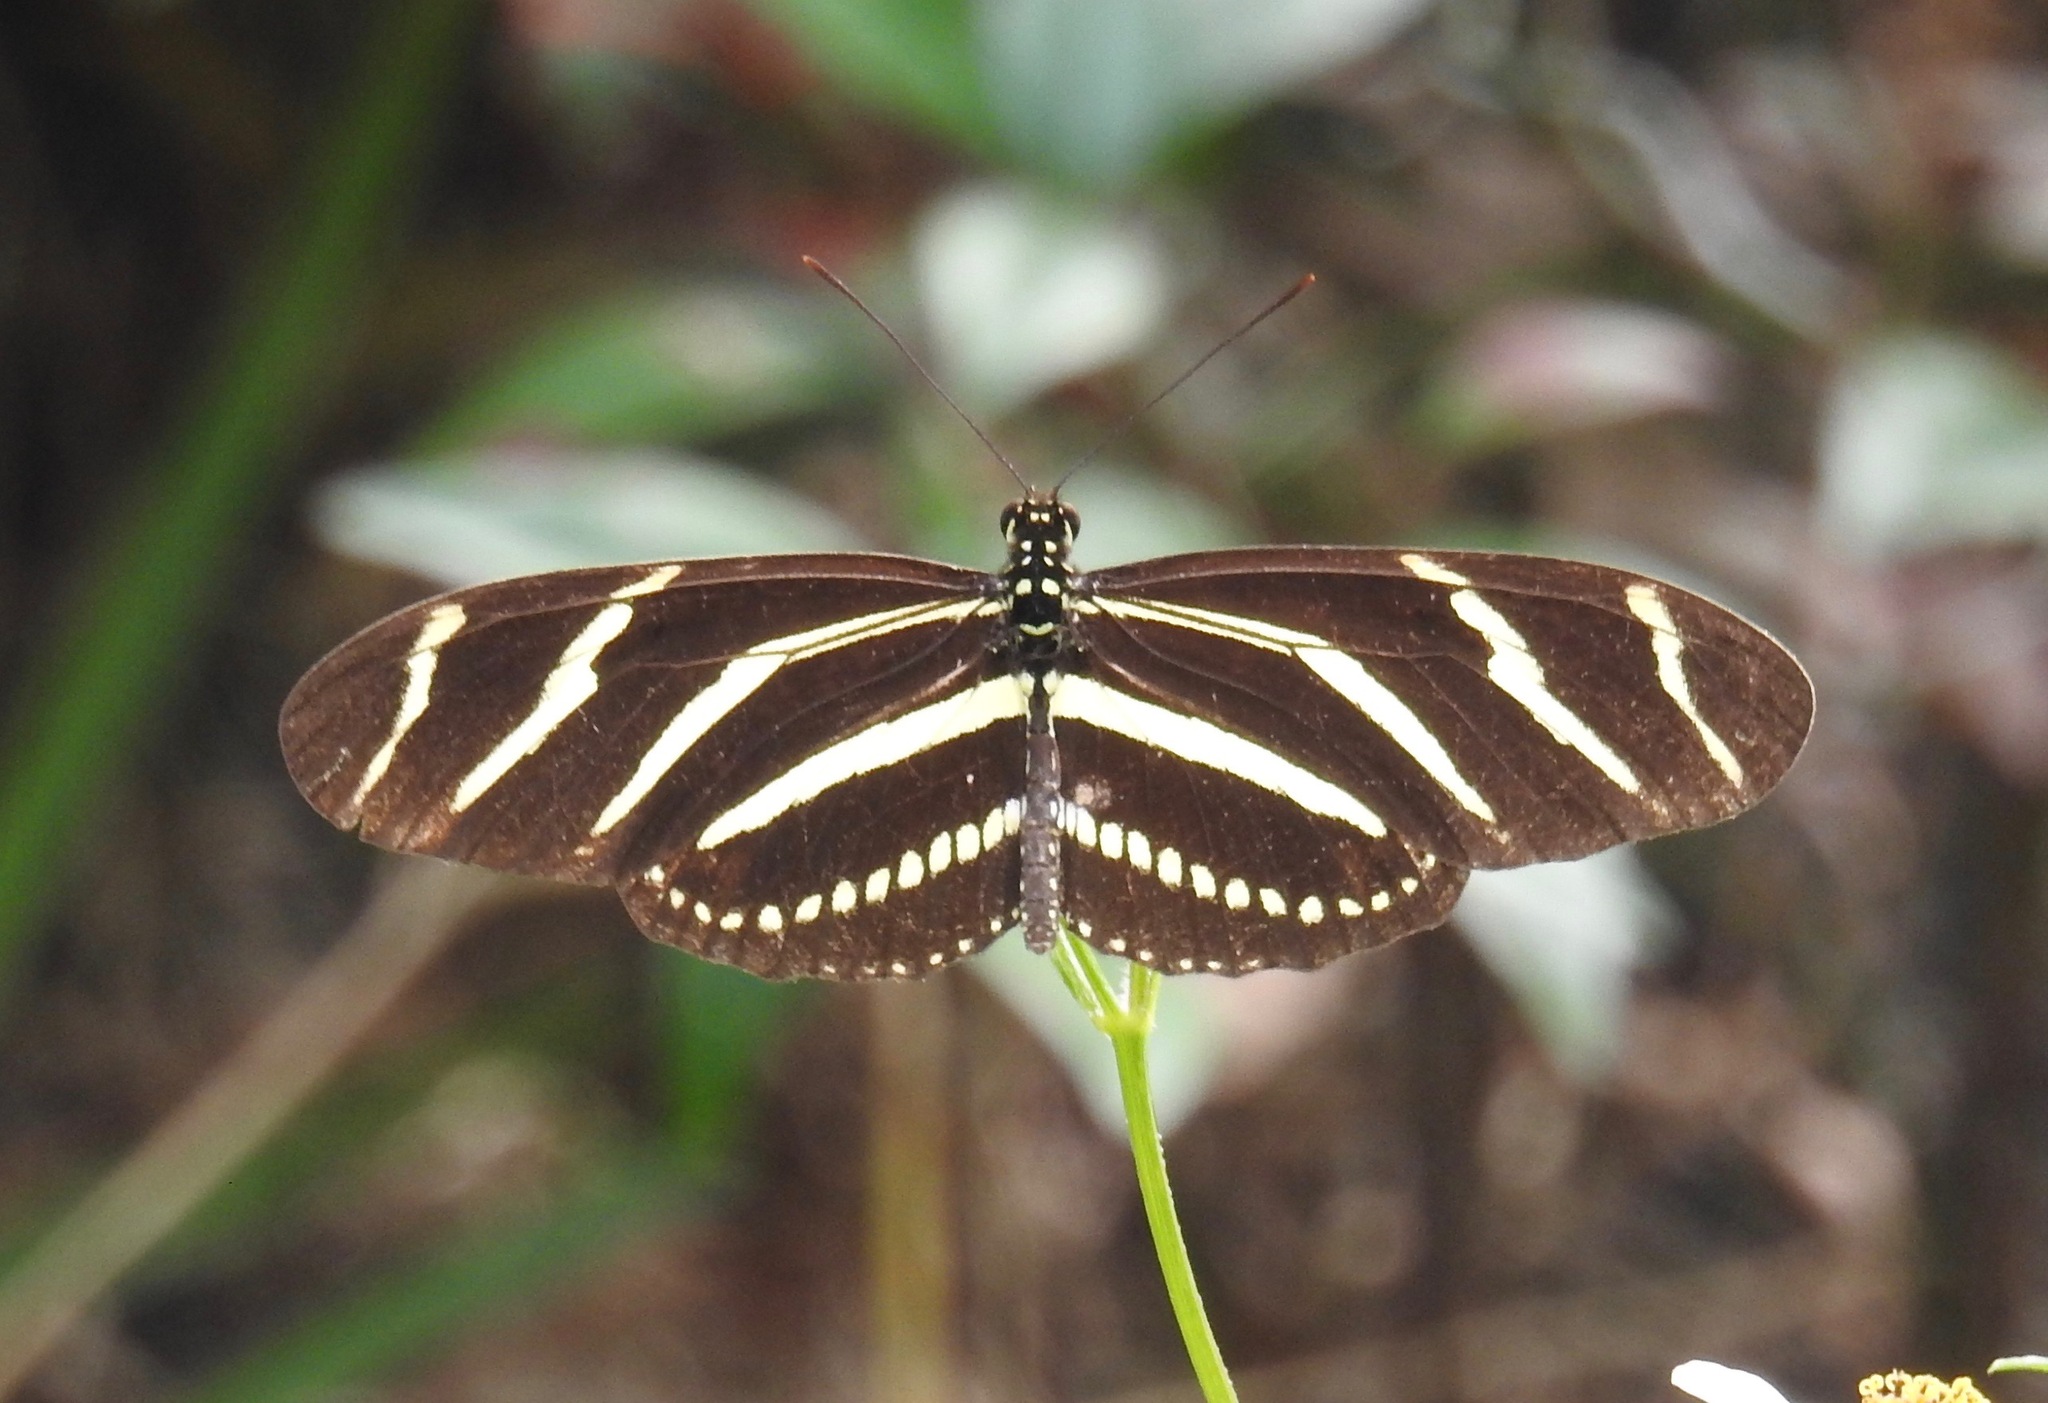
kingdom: Animalia
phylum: Arthropoda
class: Insecta
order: Lepidoptera
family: Nymphalidae
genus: Heliconius
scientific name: Heliconius charithonia
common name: Zebra long wing
